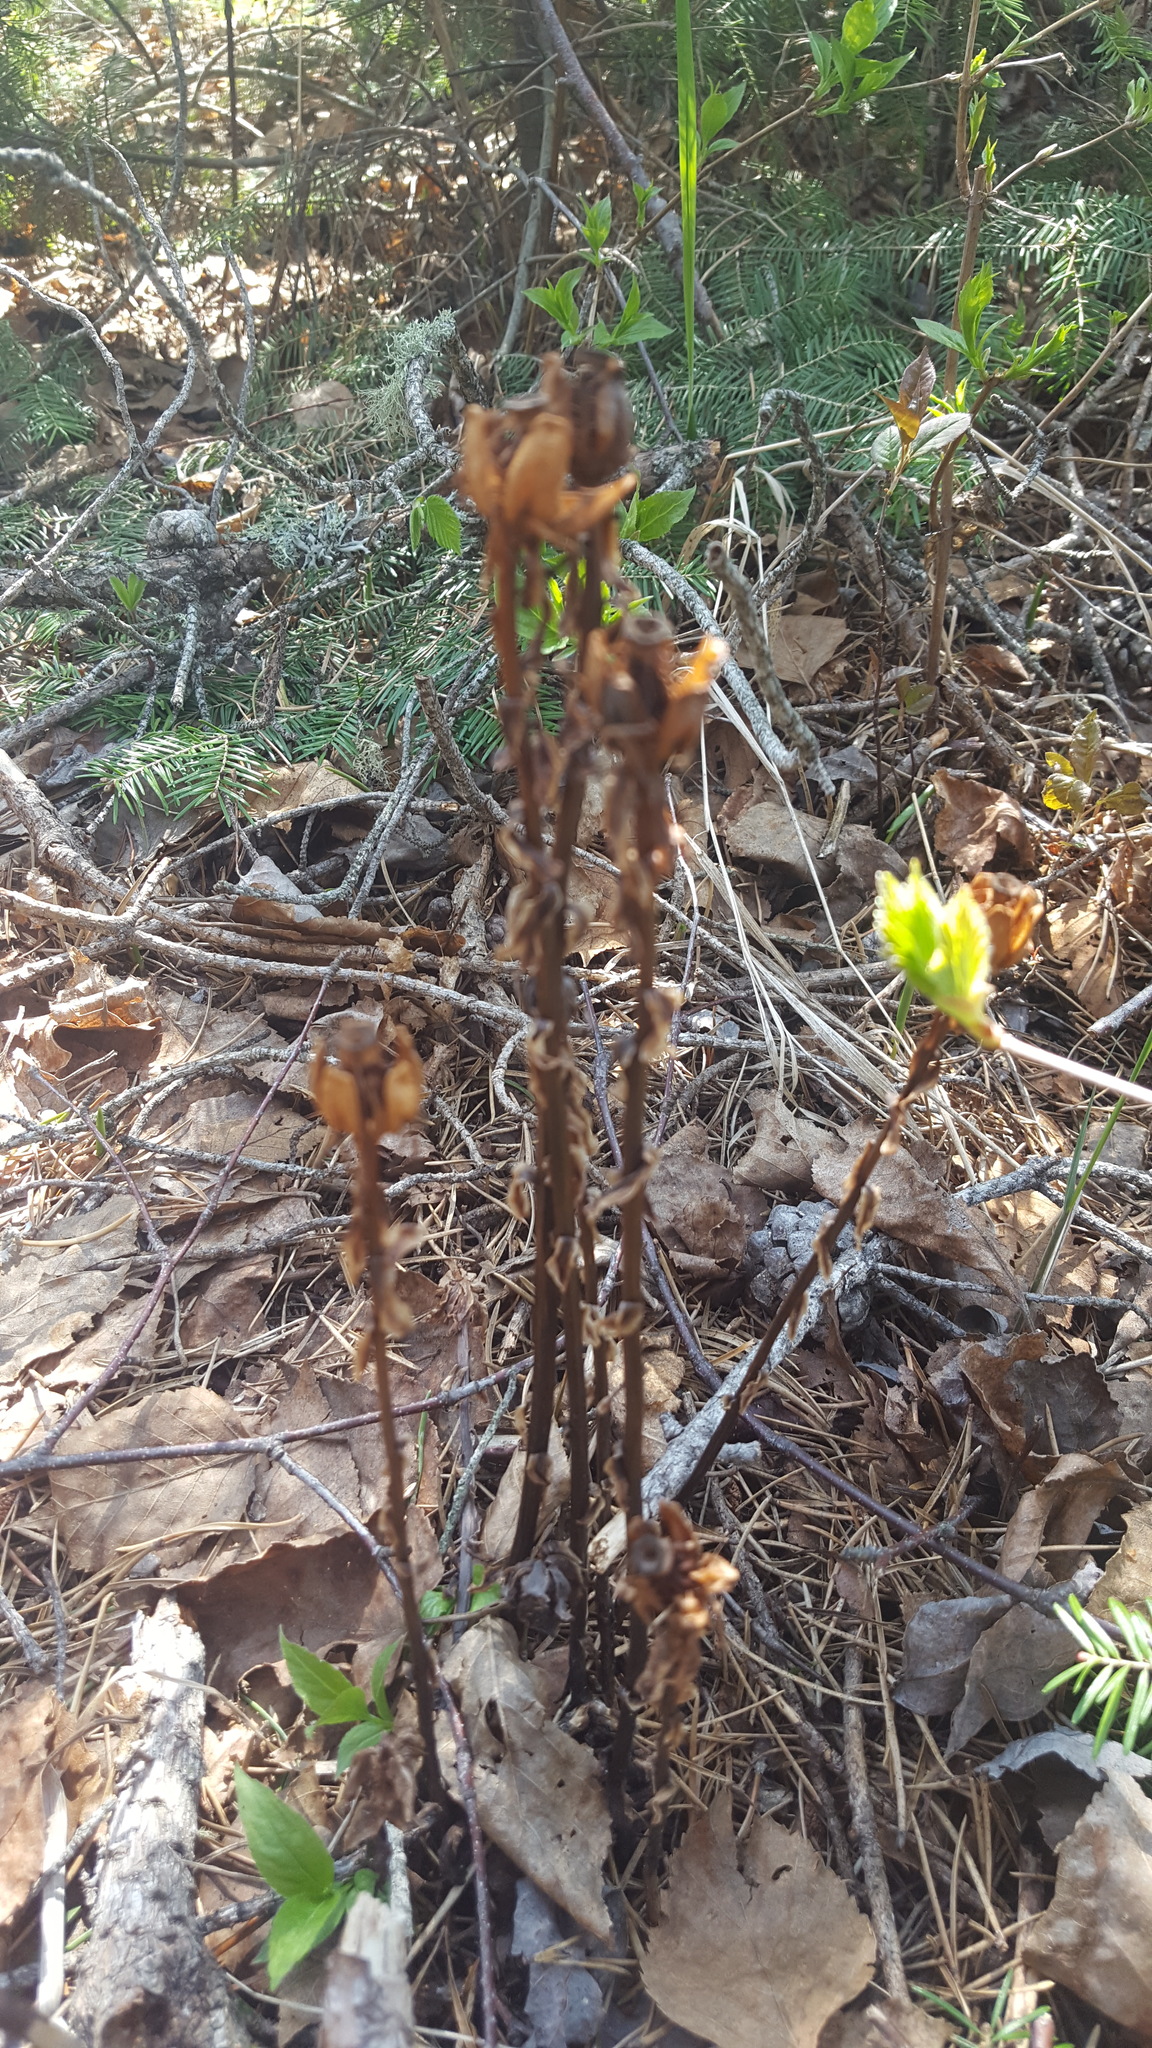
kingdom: Plantae
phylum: Tracheophyta
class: Magnoliopsida
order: Ericales
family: Ericaceae
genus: Monotropa
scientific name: Monotropa uniflora
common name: Convulsion root
